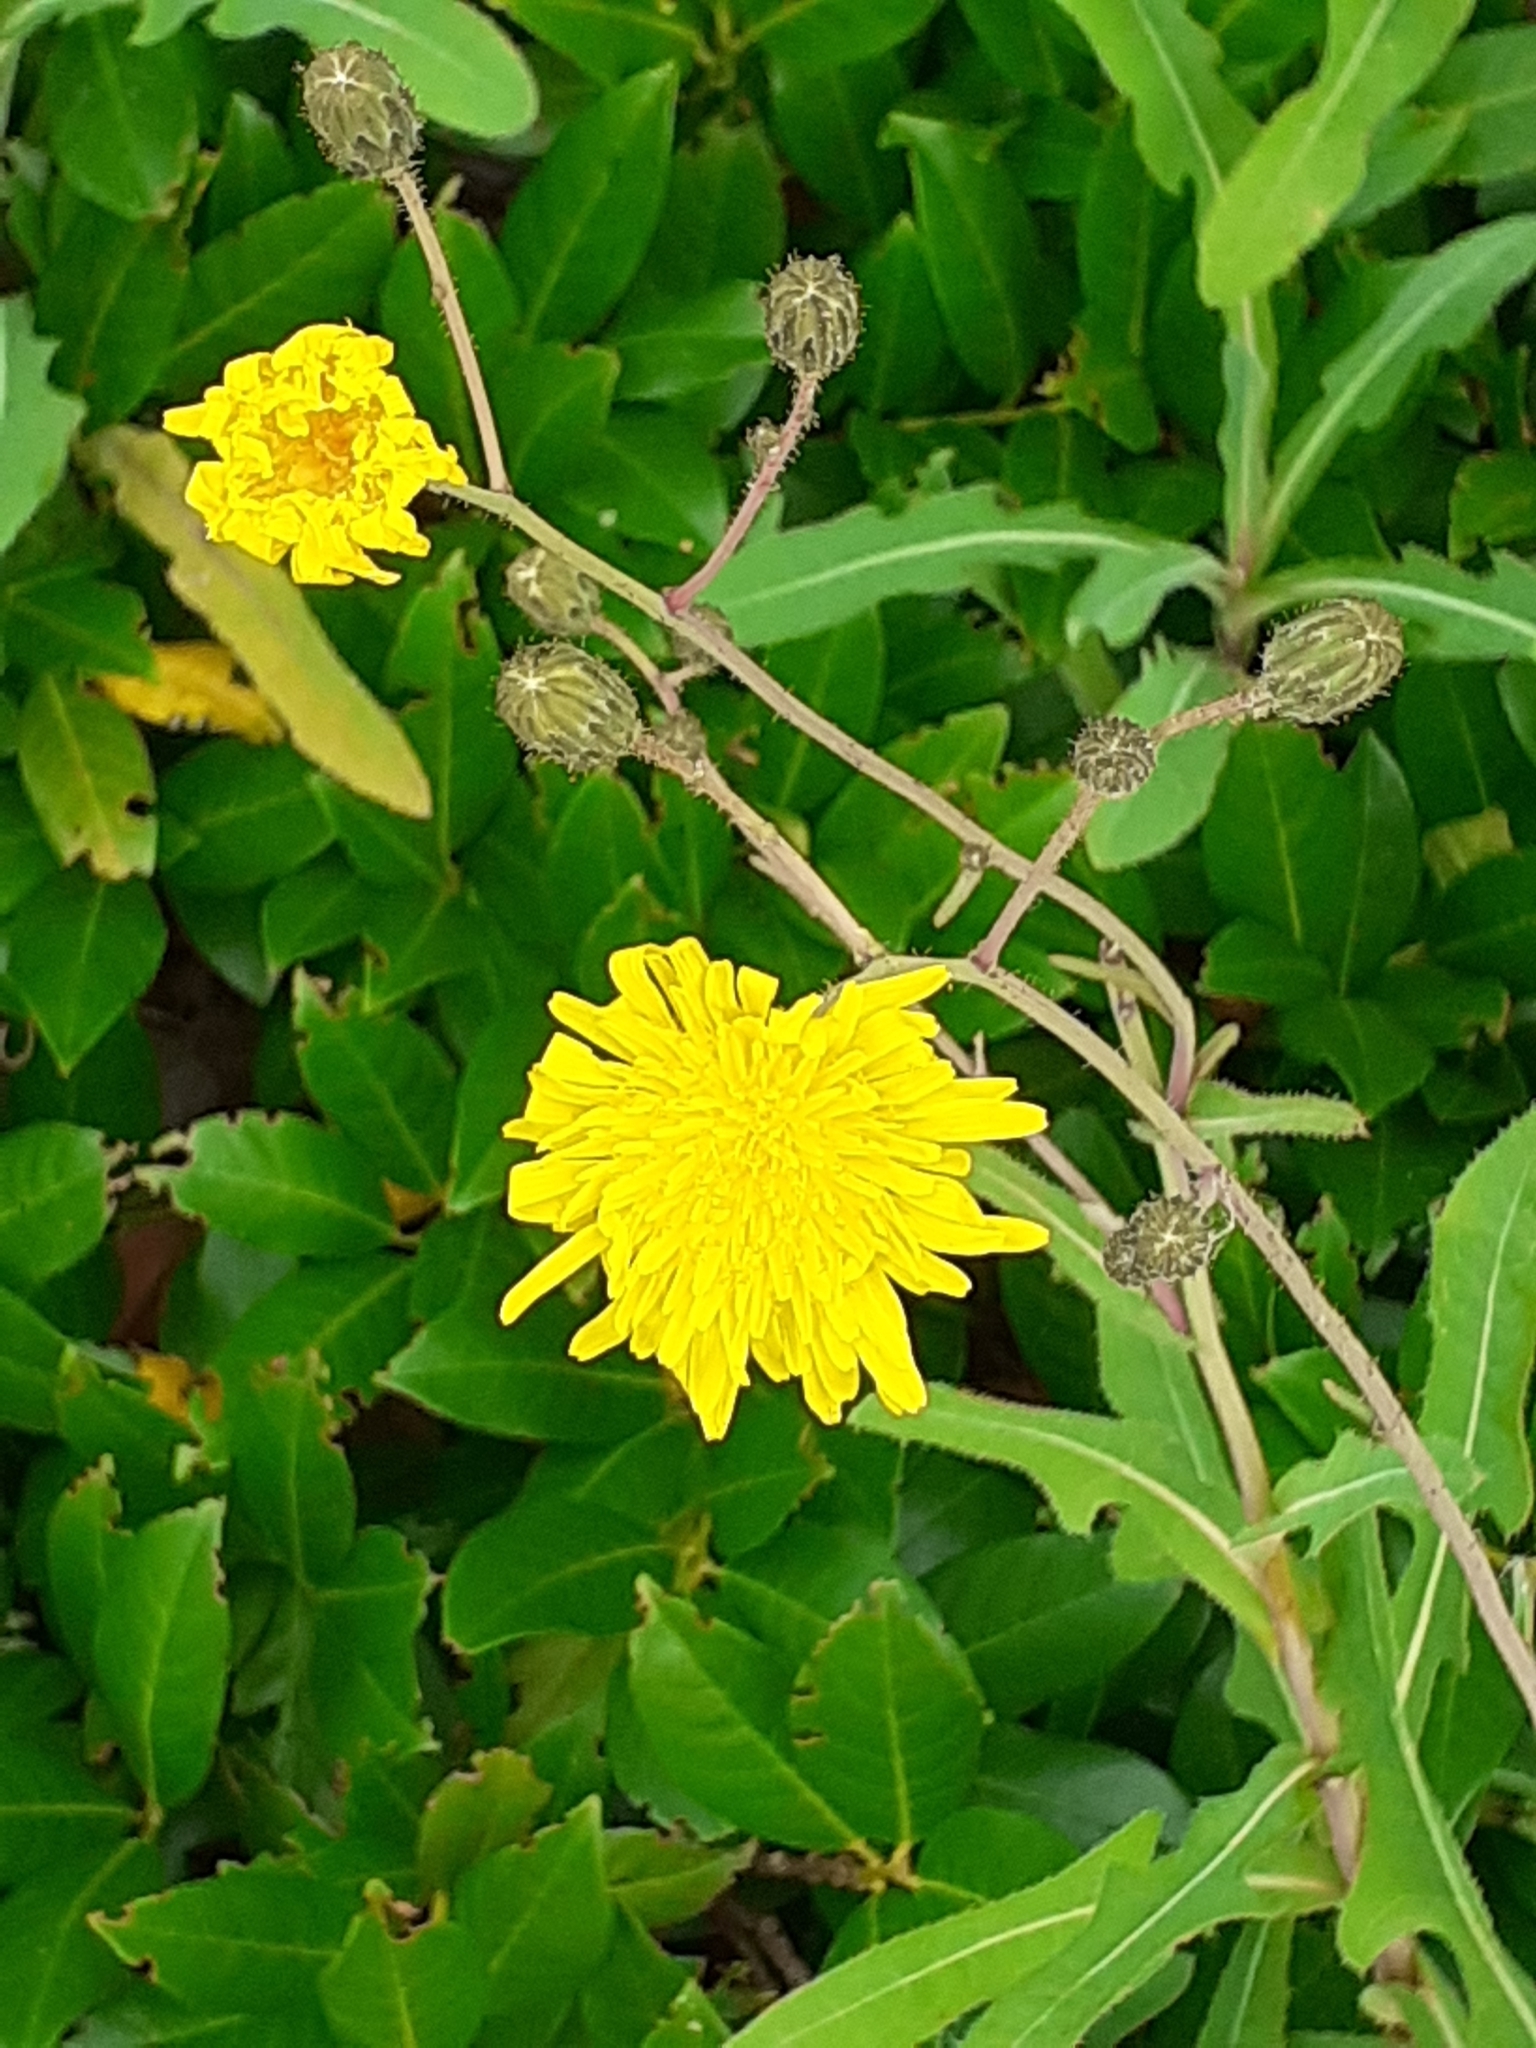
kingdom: Plantae
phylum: Tracheophyta
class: Magnoliopsida
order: Asterales
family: Asteraceae
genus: Sonchus
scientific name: Sonchus arvensis
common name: Perennial sow-thistle
